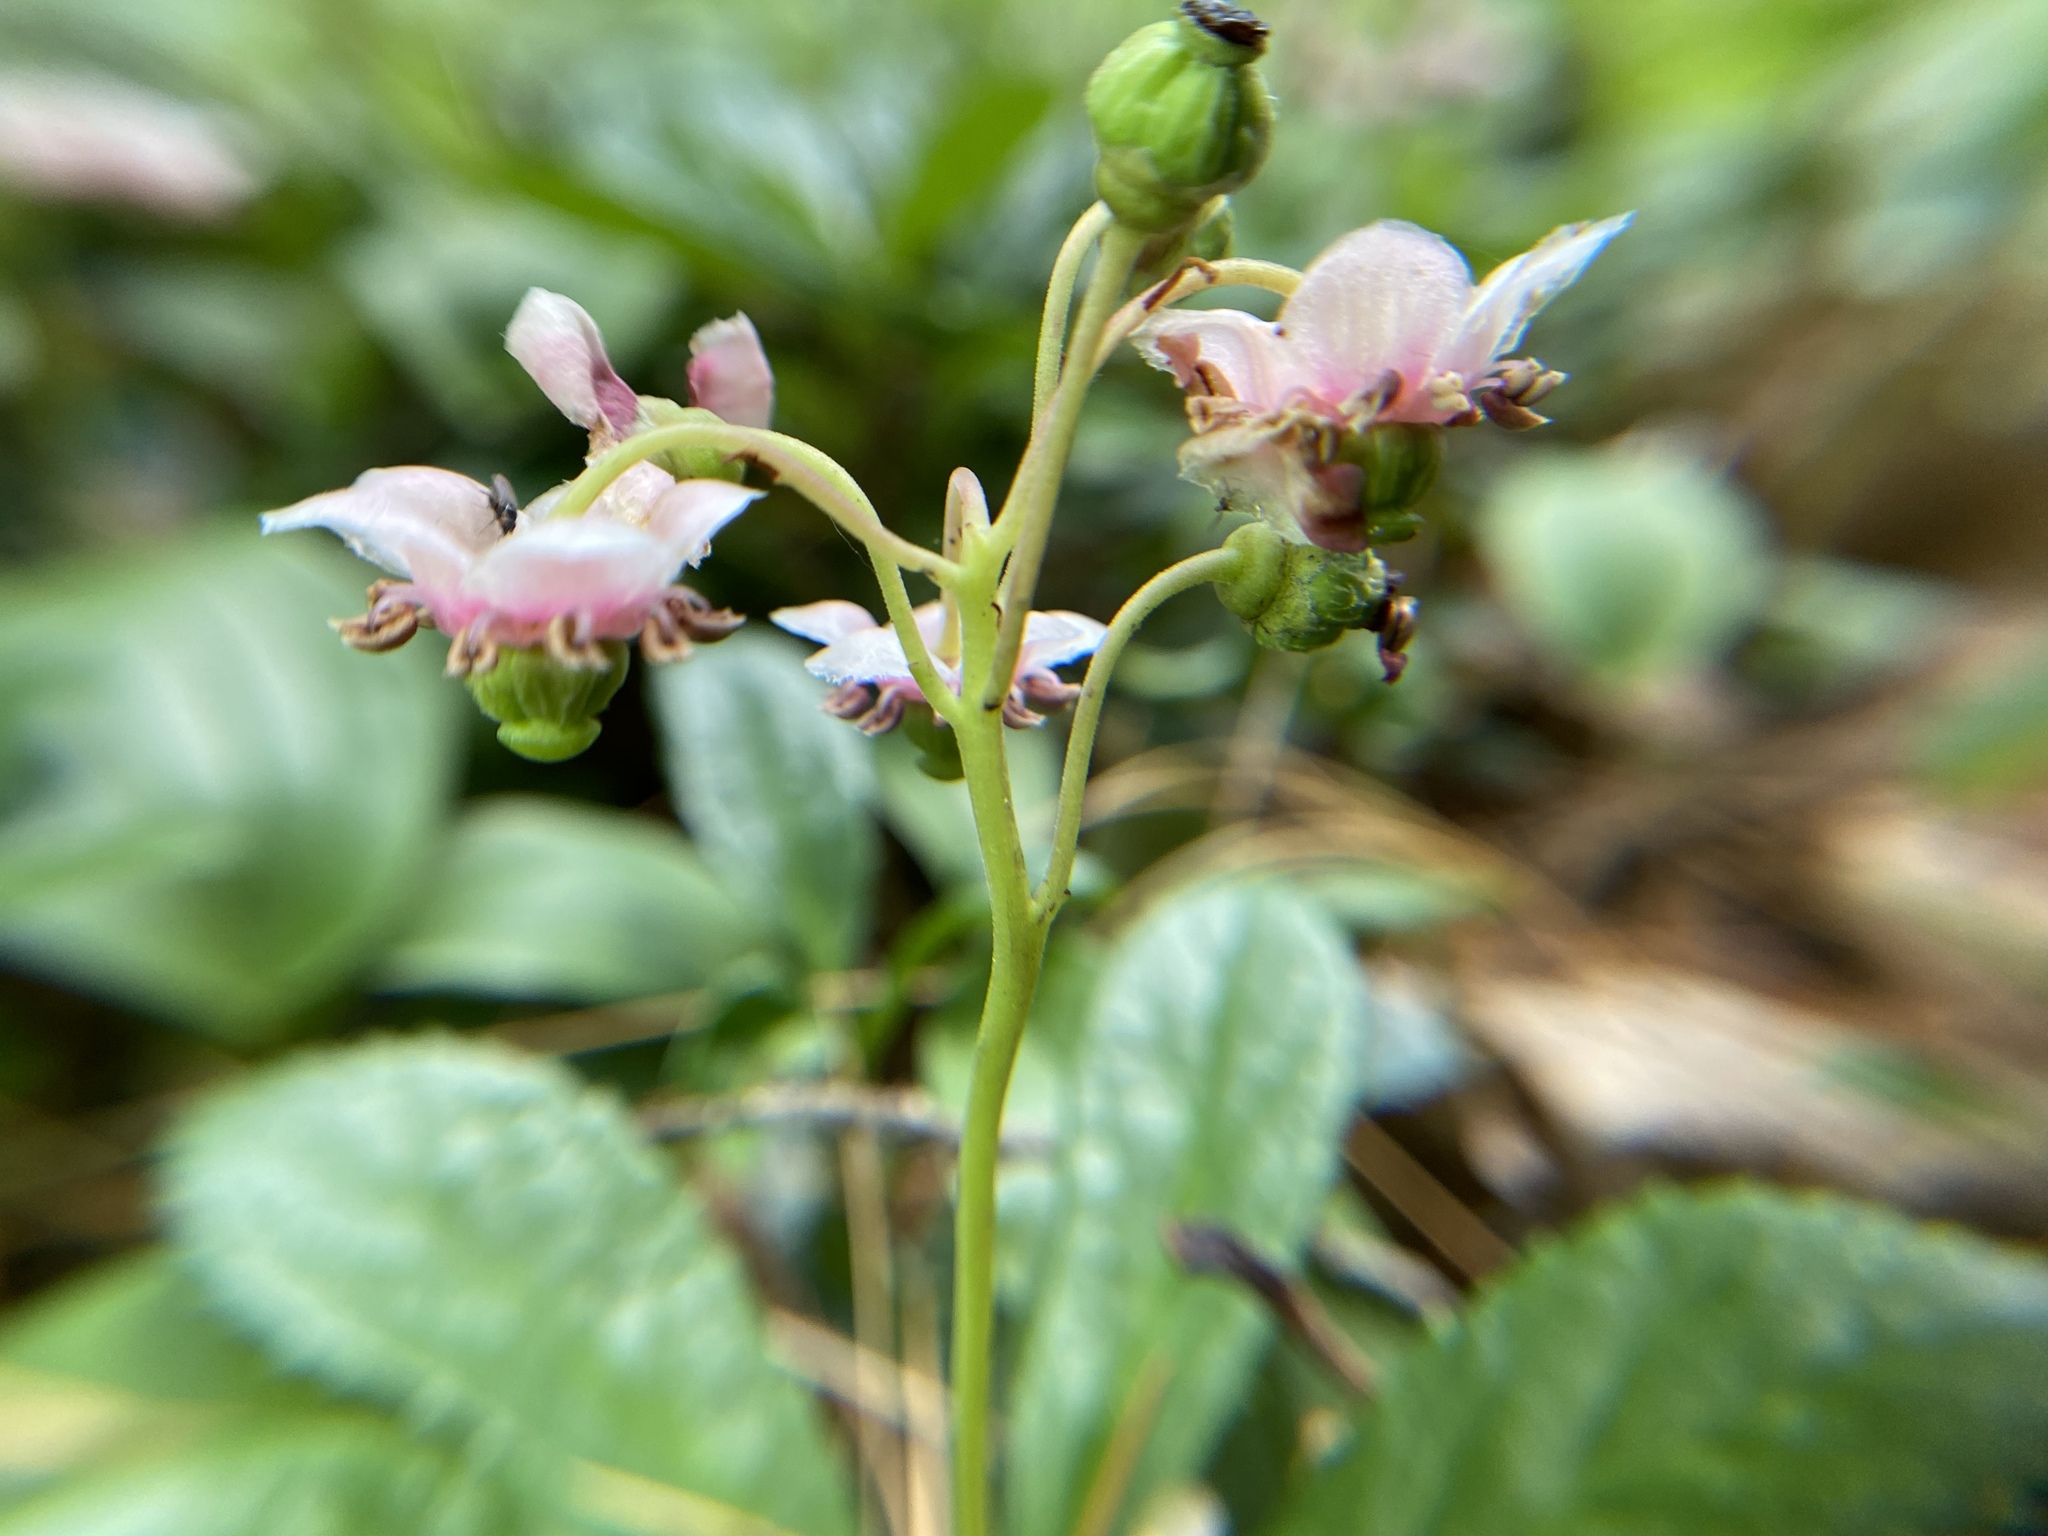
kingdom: Plantae
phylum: Tracheophyta
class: Magnoliopsida
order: Ericales
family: Ericaceae
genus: Chimaphila
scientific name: Chimaphila umbellata
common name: Pipsissewa
